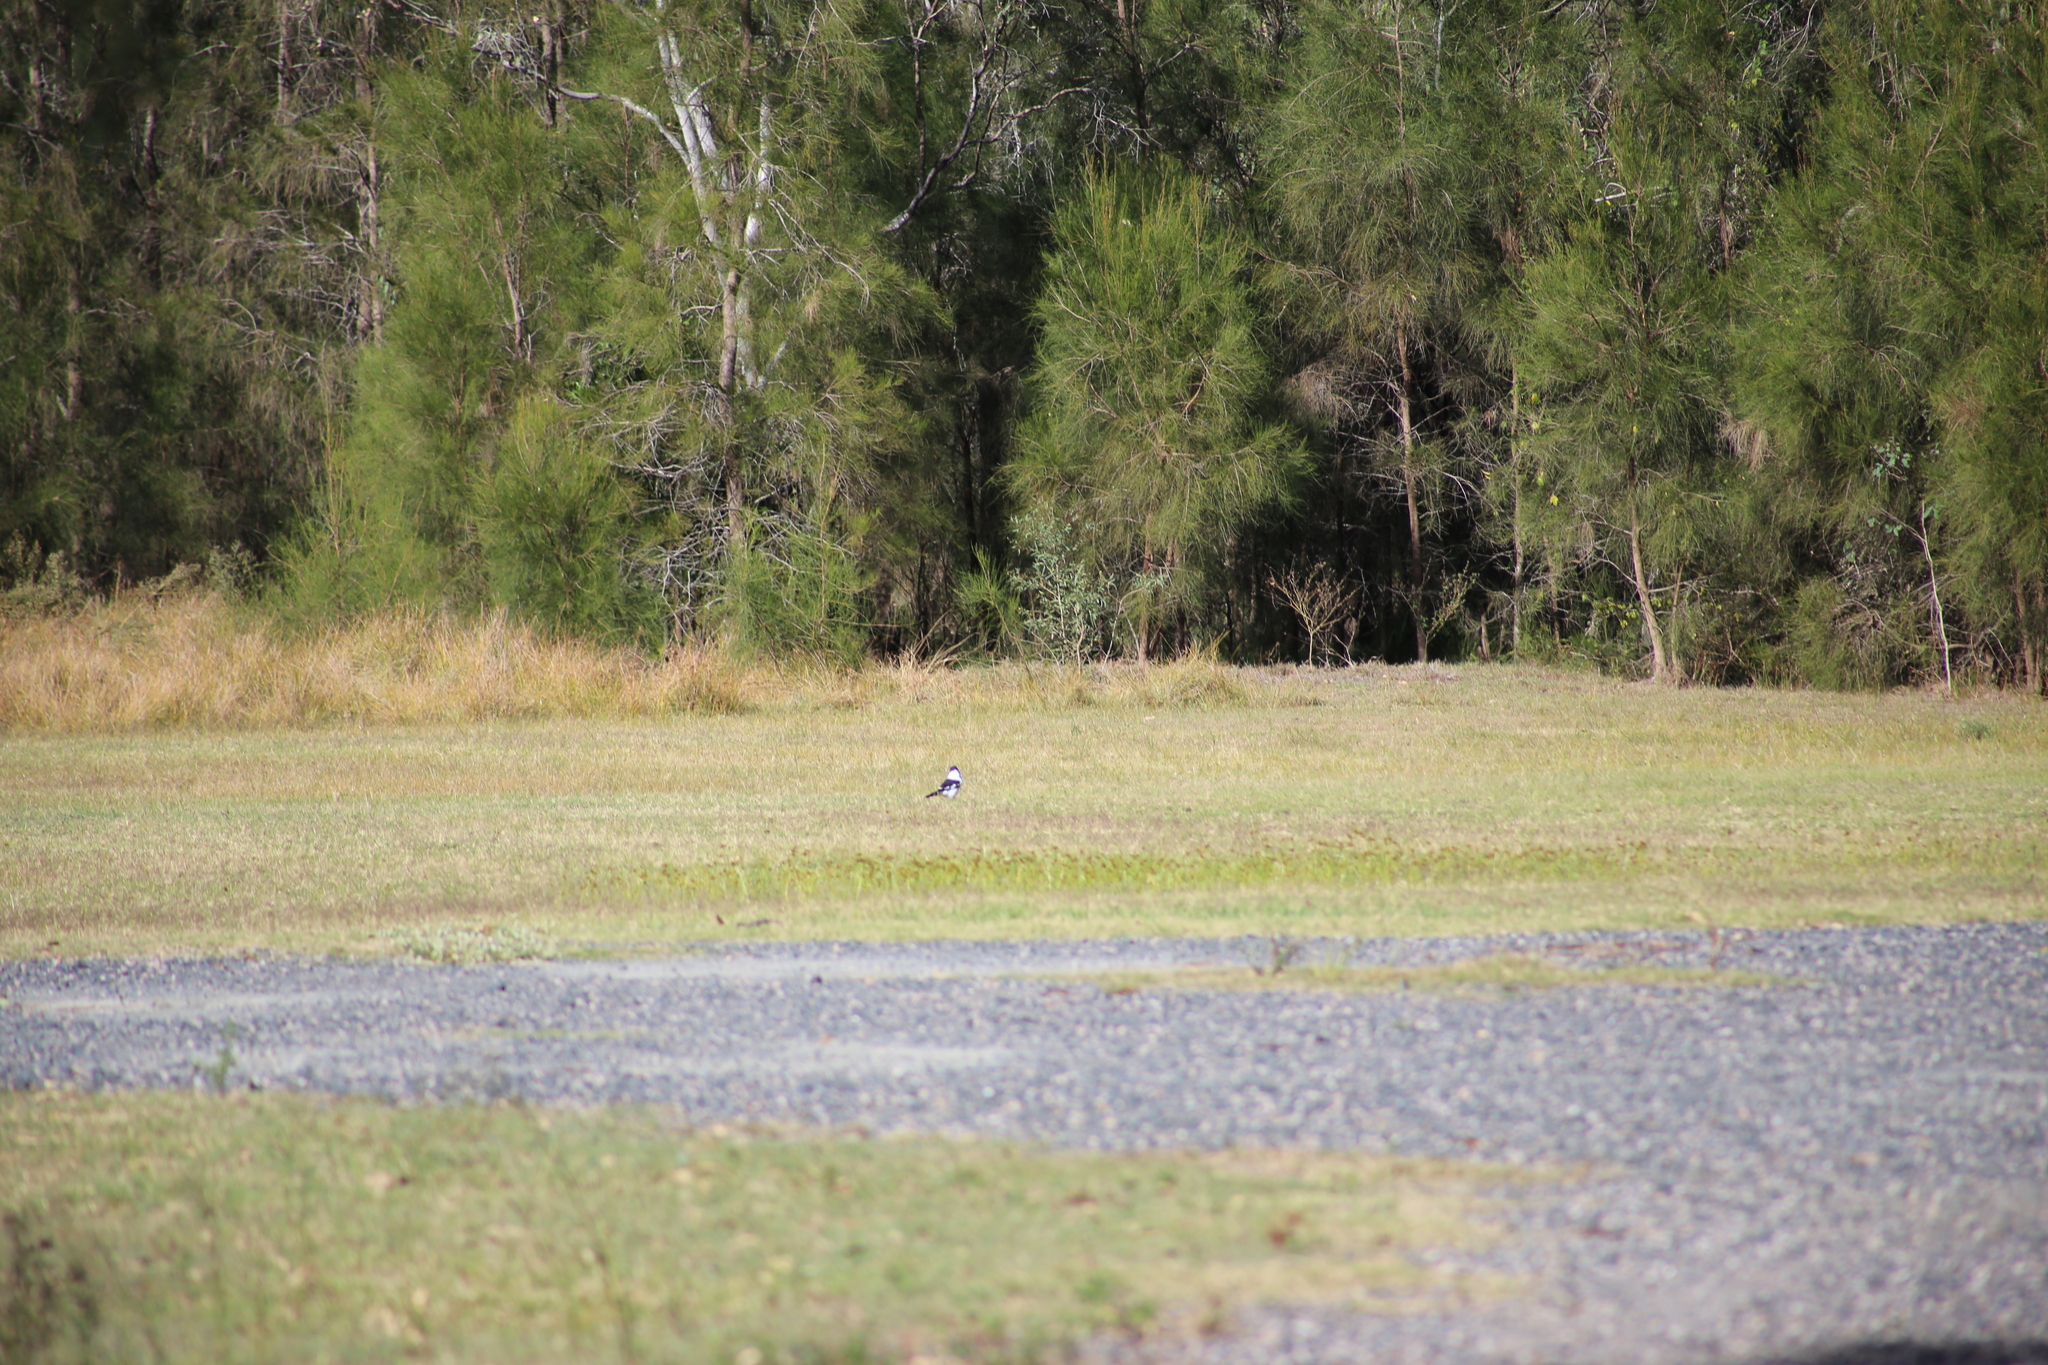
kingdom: Animalia
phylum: Chordata
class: Aves
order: Passeriformes
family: Cracticidae
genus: Cracticus
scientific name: Cracticus nigrogularis
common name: Pied butcherbird
